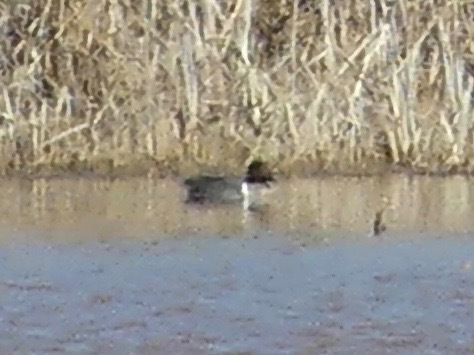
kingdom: Animalia
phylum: Chordata
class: Aves
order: Anseriformes
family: Anatidae
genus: Anas
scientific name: Anas crecca
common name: Eurasian teal
